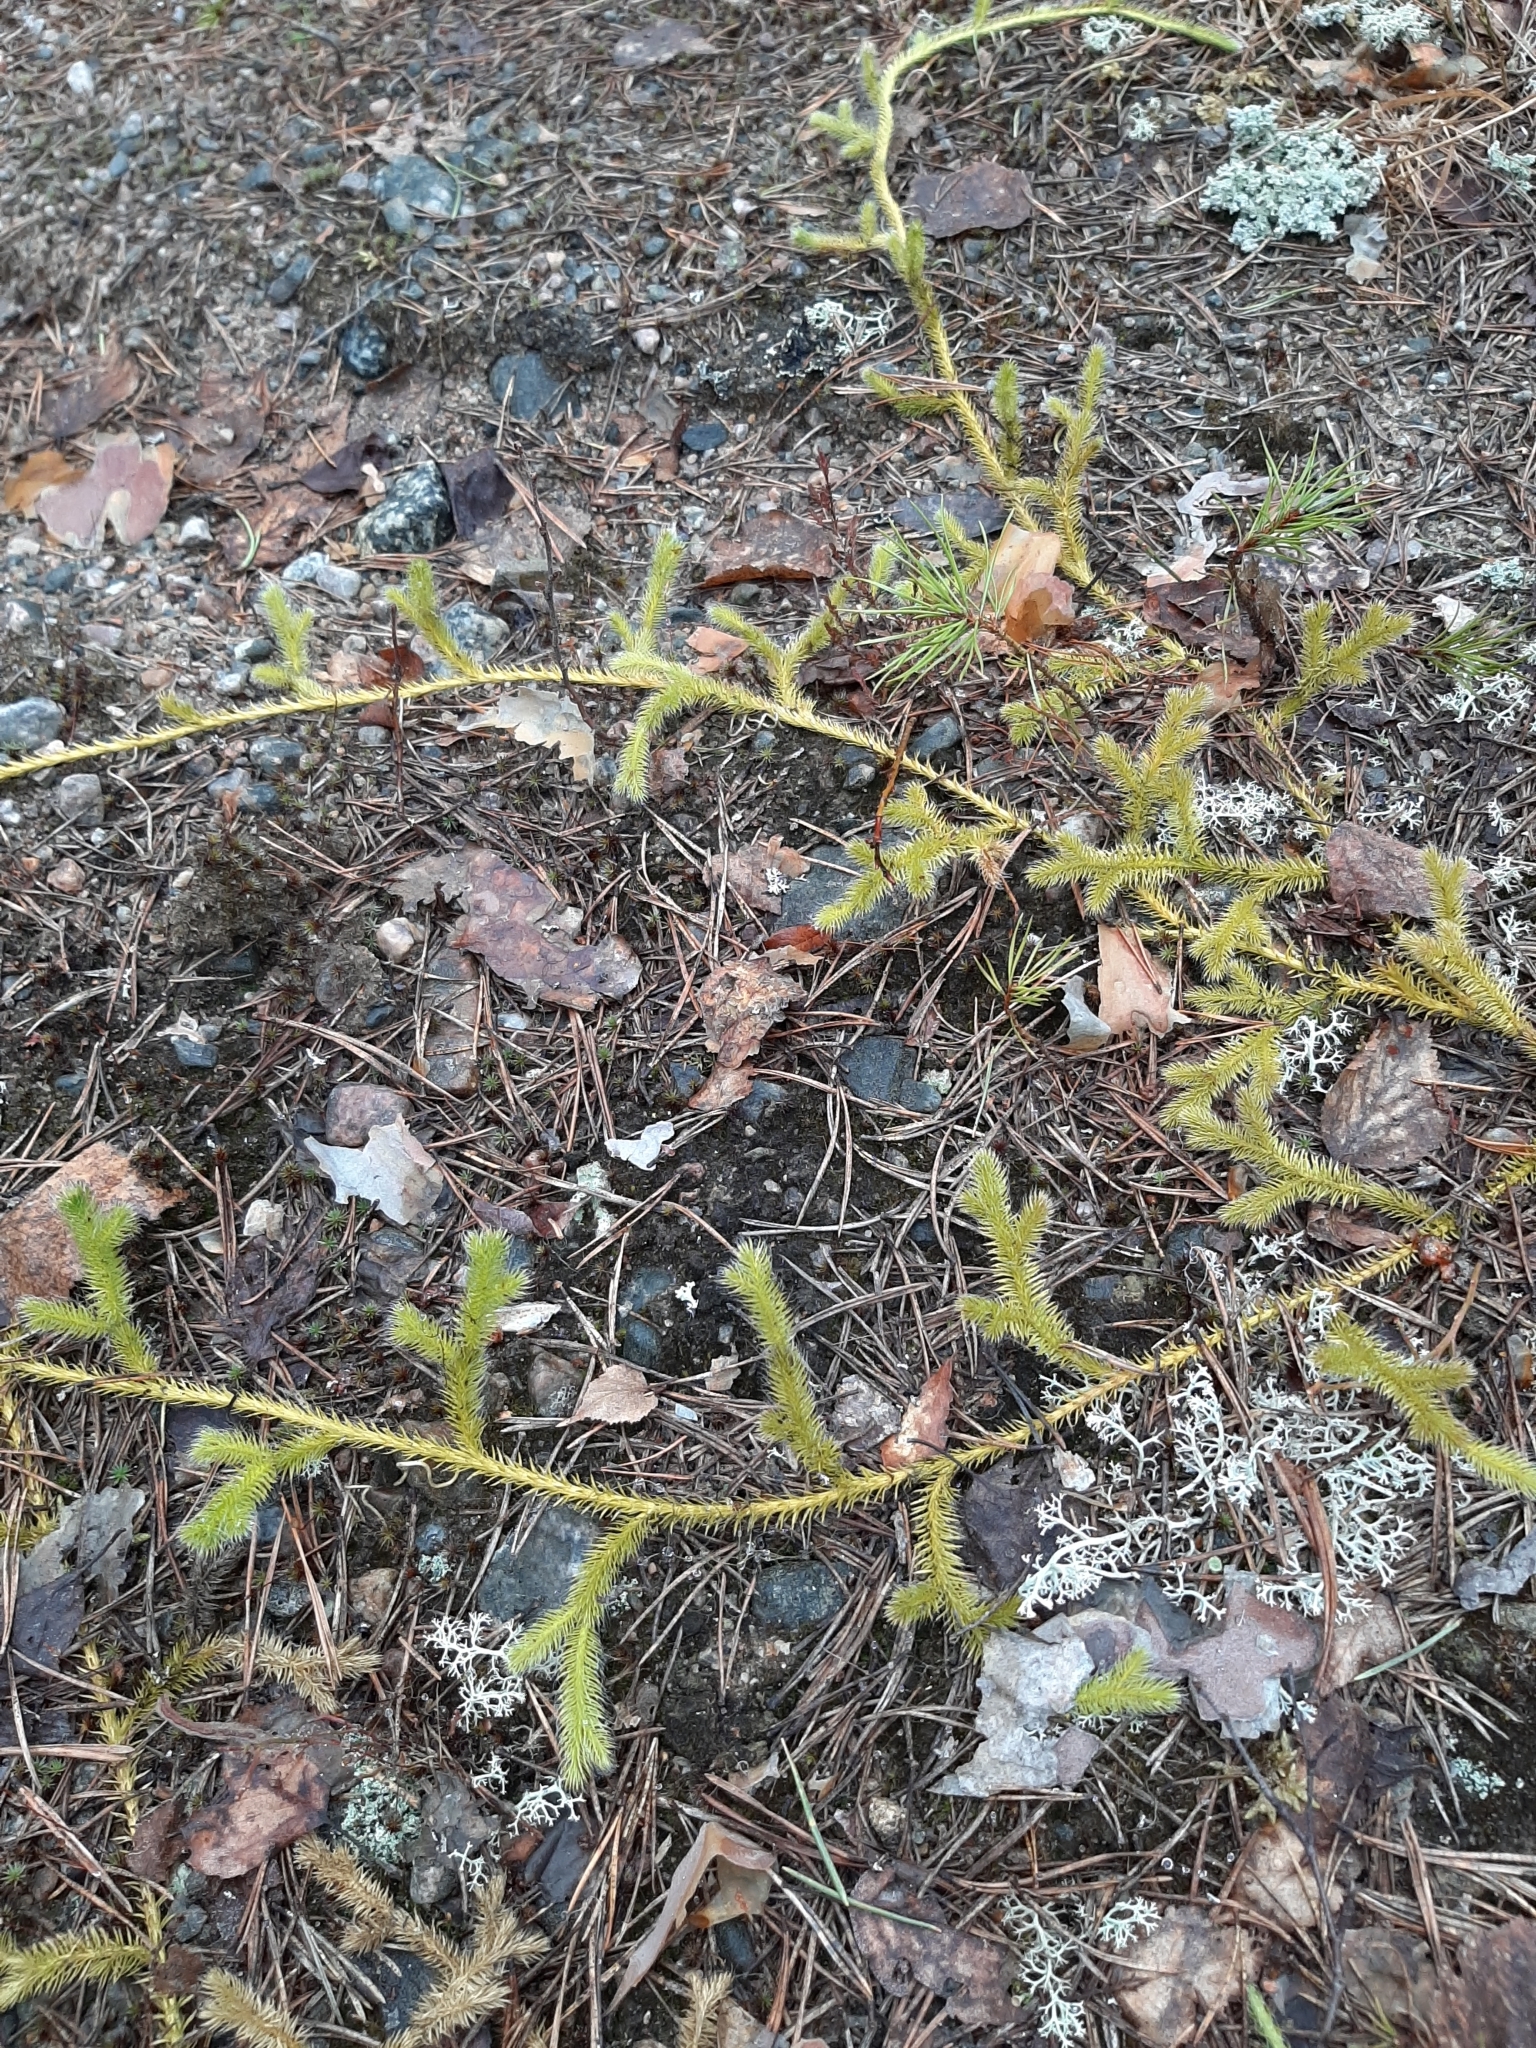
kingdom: Plantae
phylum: Tracheophyta
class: Lycopodiopsida
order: Lycopodiales
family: Lycopodiaceae
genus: Lycopodium
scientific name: Lycopodium clavatum
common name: Stag's-horn clubmoss
